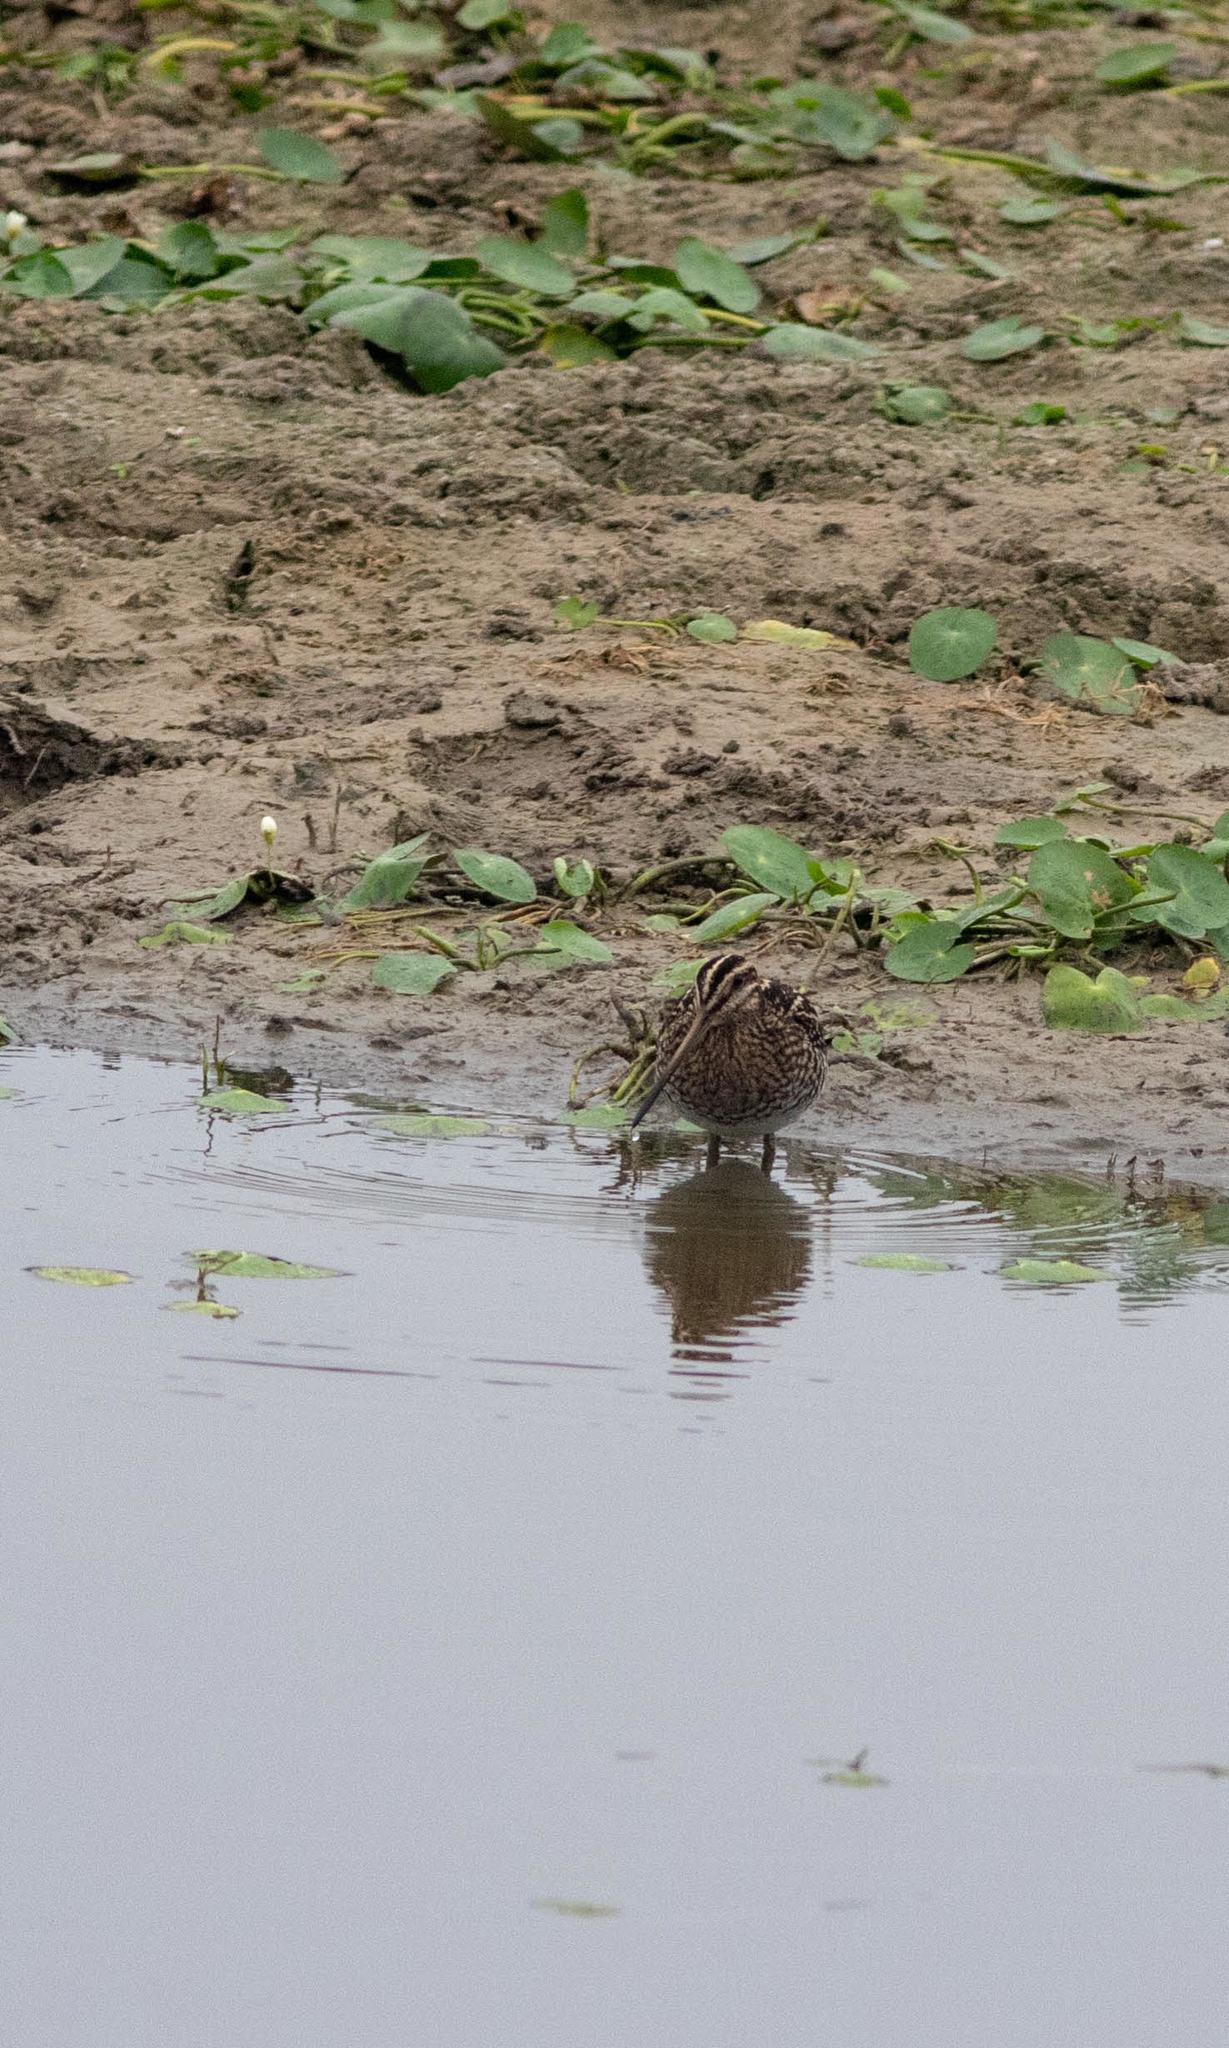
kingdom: Animalia
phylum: Chordata
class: Aves
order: Charadriiformes
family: Scolopacidae
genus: Gallinago
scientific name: Gallinago delicata
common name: Wilson's snipe
